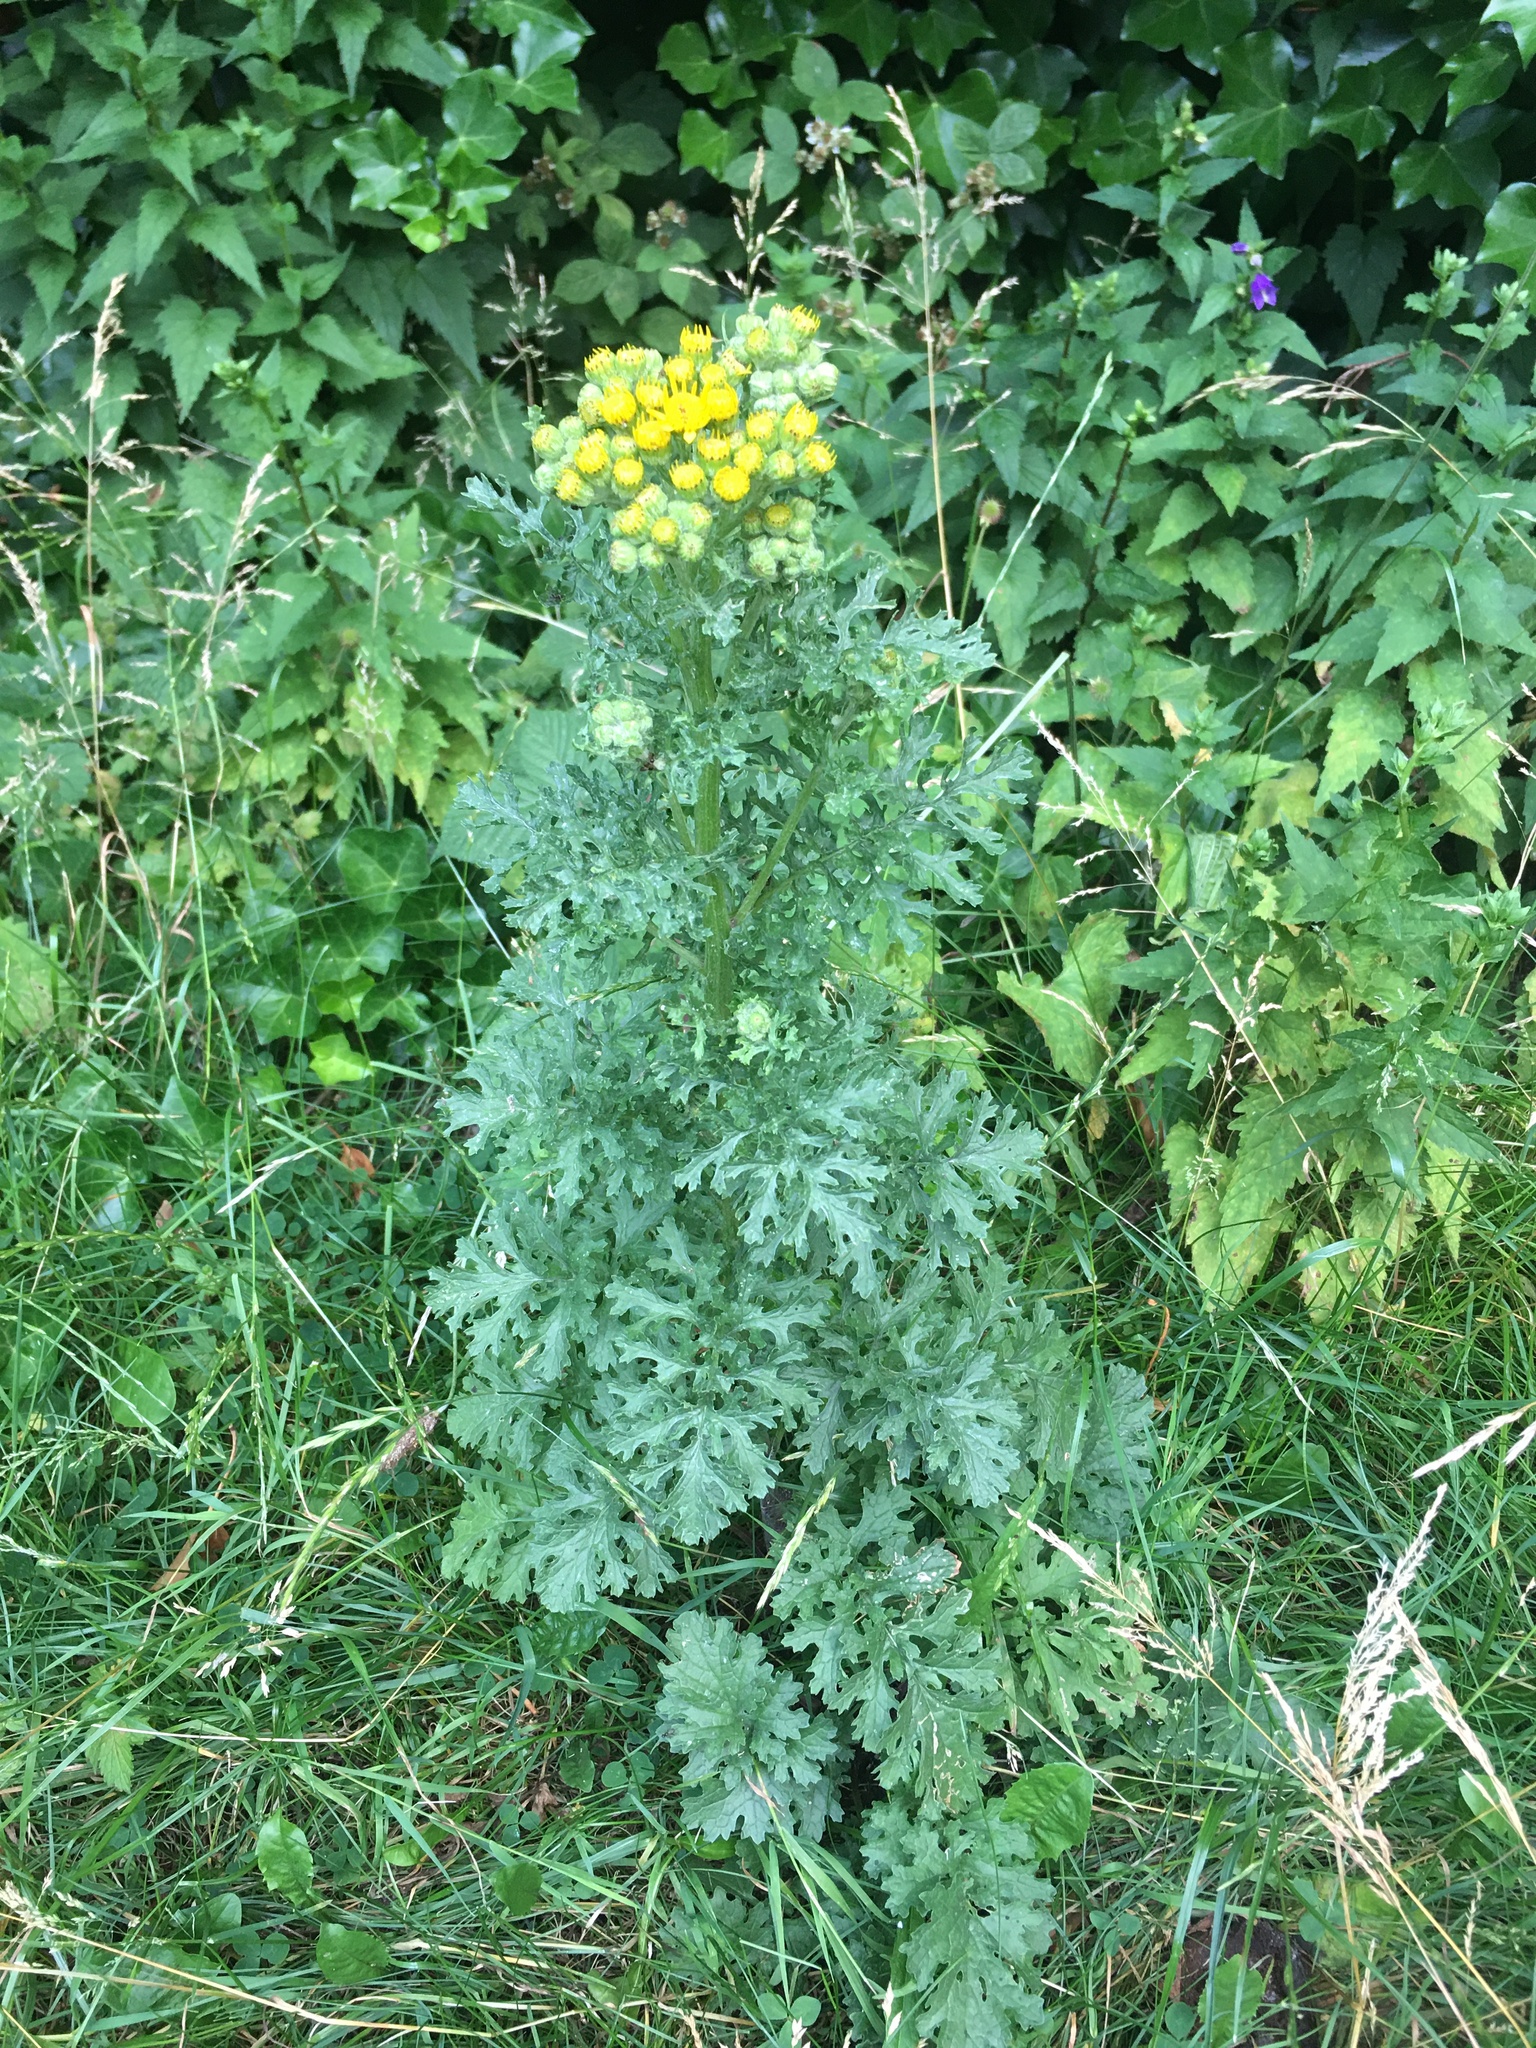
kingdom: Plantae
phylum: Tracheophyta
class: Magnoliopsida
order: Asterales
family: Asteraceae
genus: Jacobaea
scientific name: Jacobaea vulgaris
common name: Stinking willie
